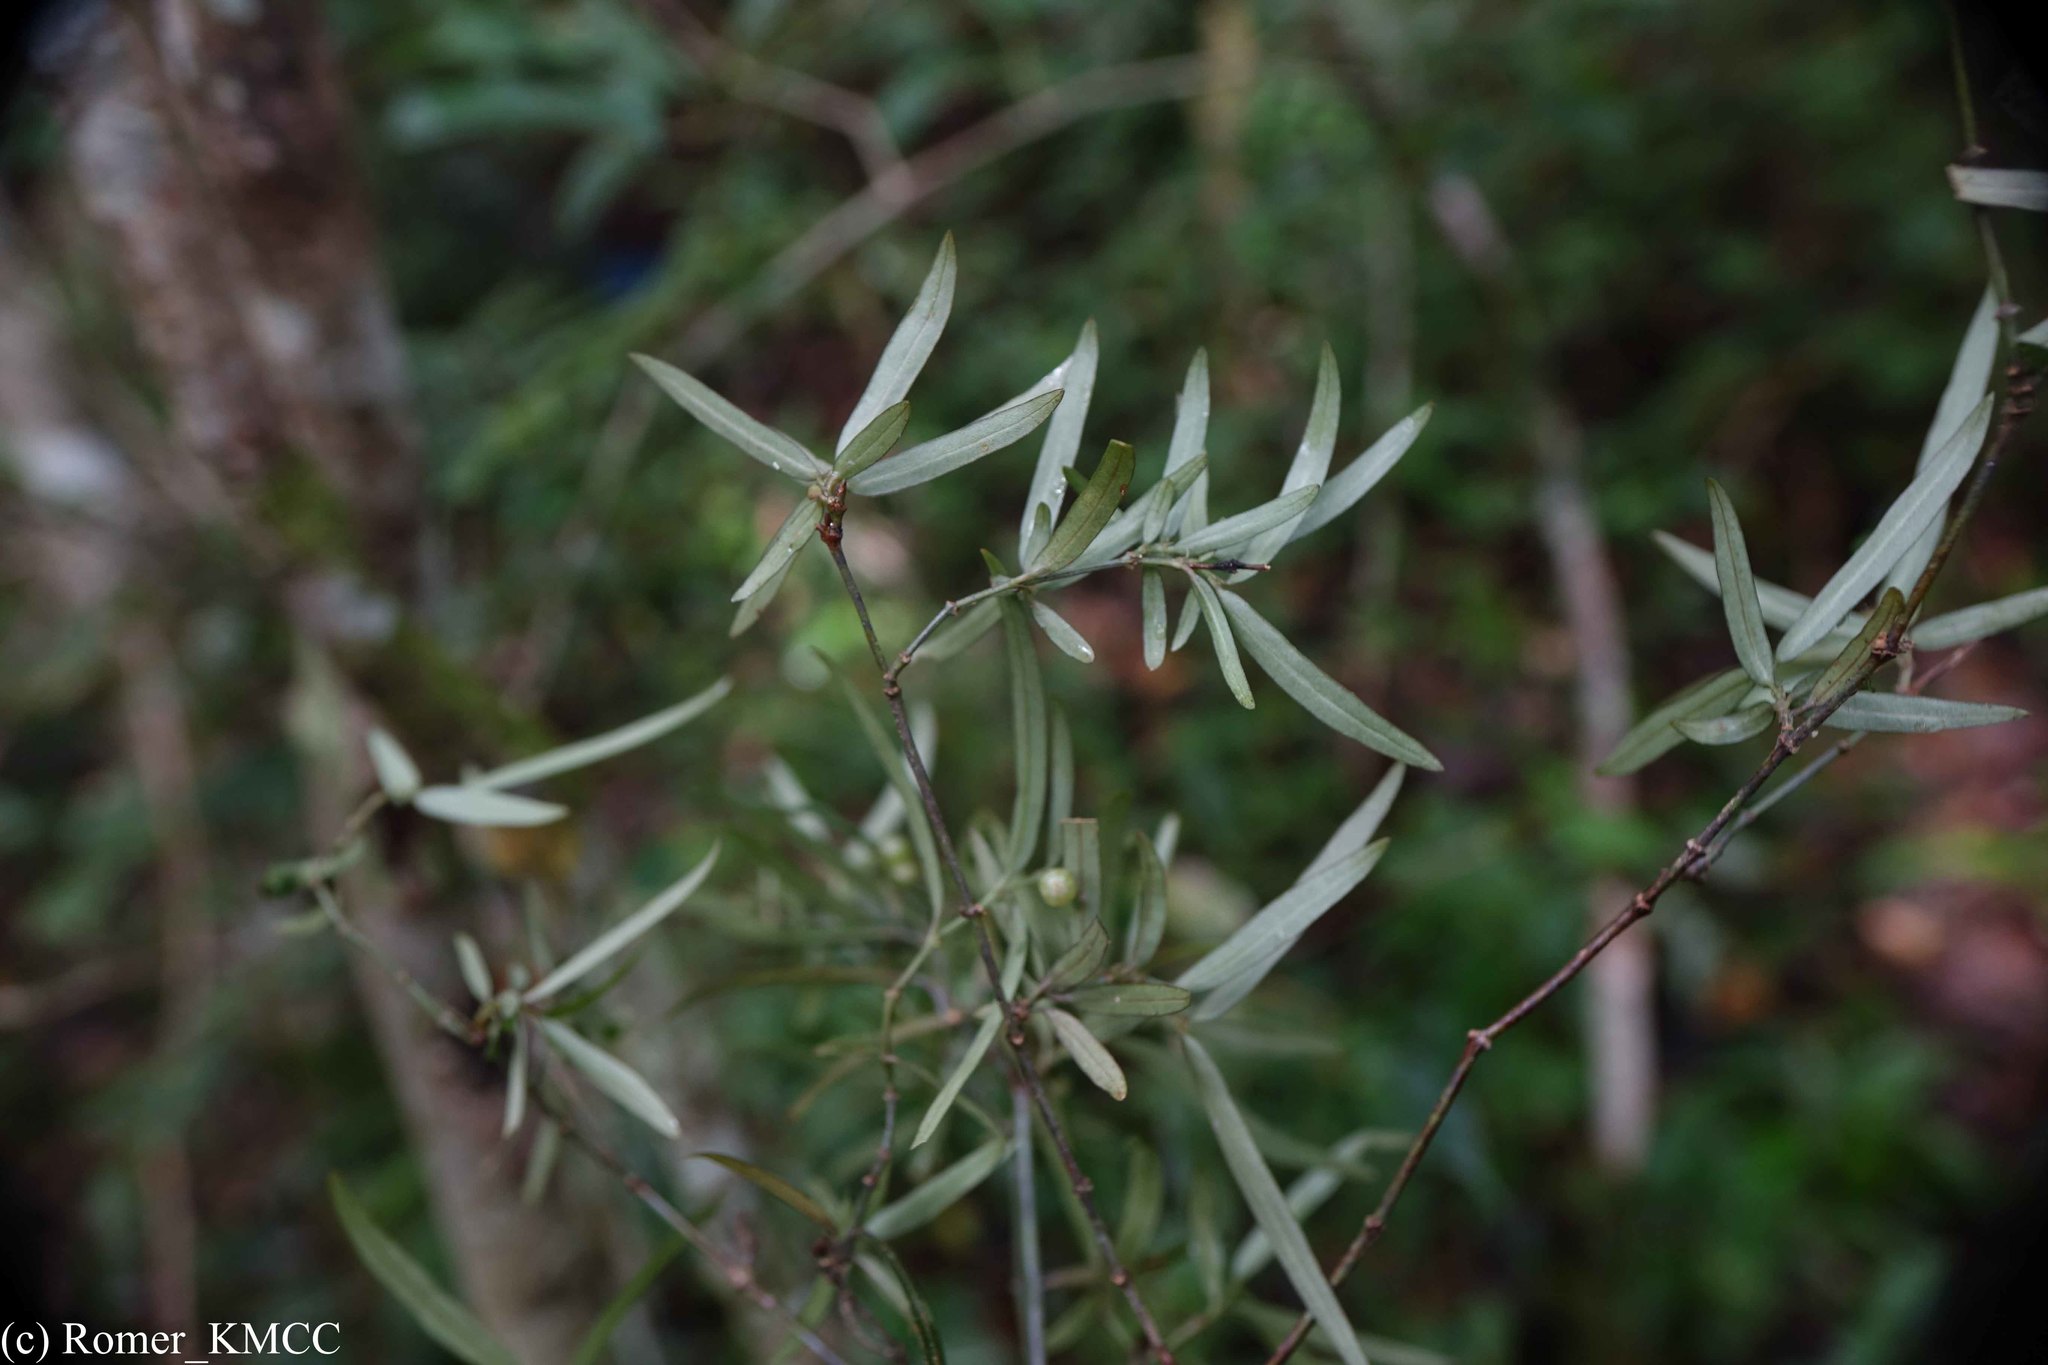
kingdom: Plantae
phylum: Tracheophyta
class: Magnoliopsida
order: Gentianales
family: Rubiaceae
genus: Psychotria
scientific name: Psychotria taxifolia
